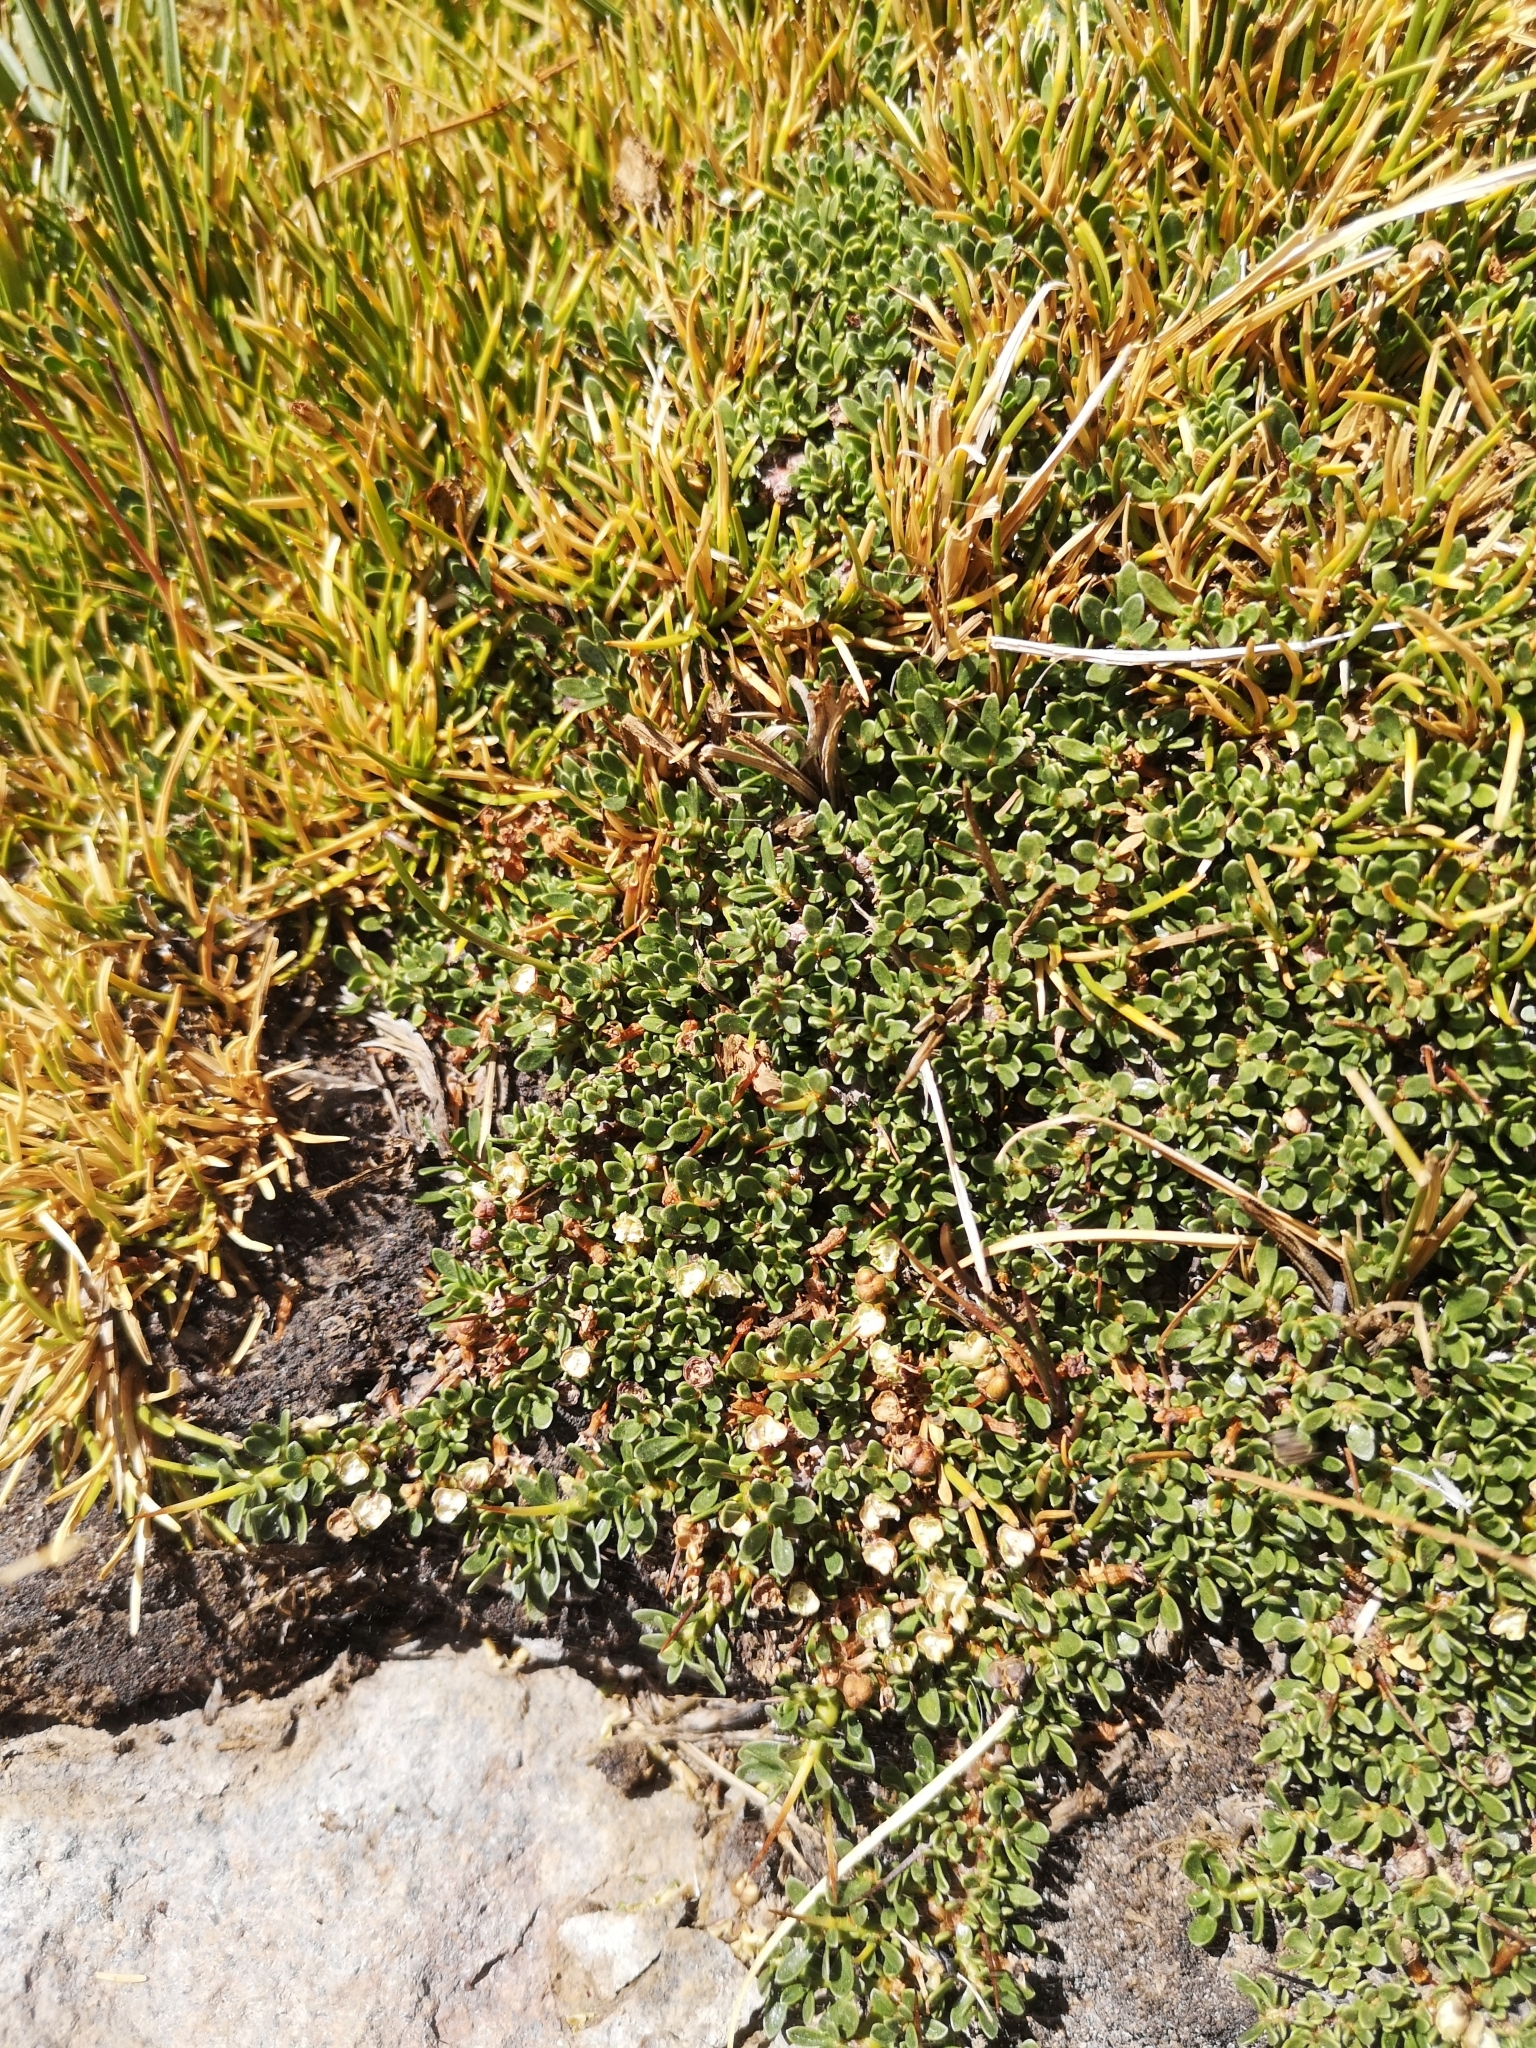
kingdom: Plantae
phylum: Tracheophyta
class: Magnoliopsida
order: Rosales
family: Rhamnaceae
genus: Discaria
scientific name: Discaria nana
